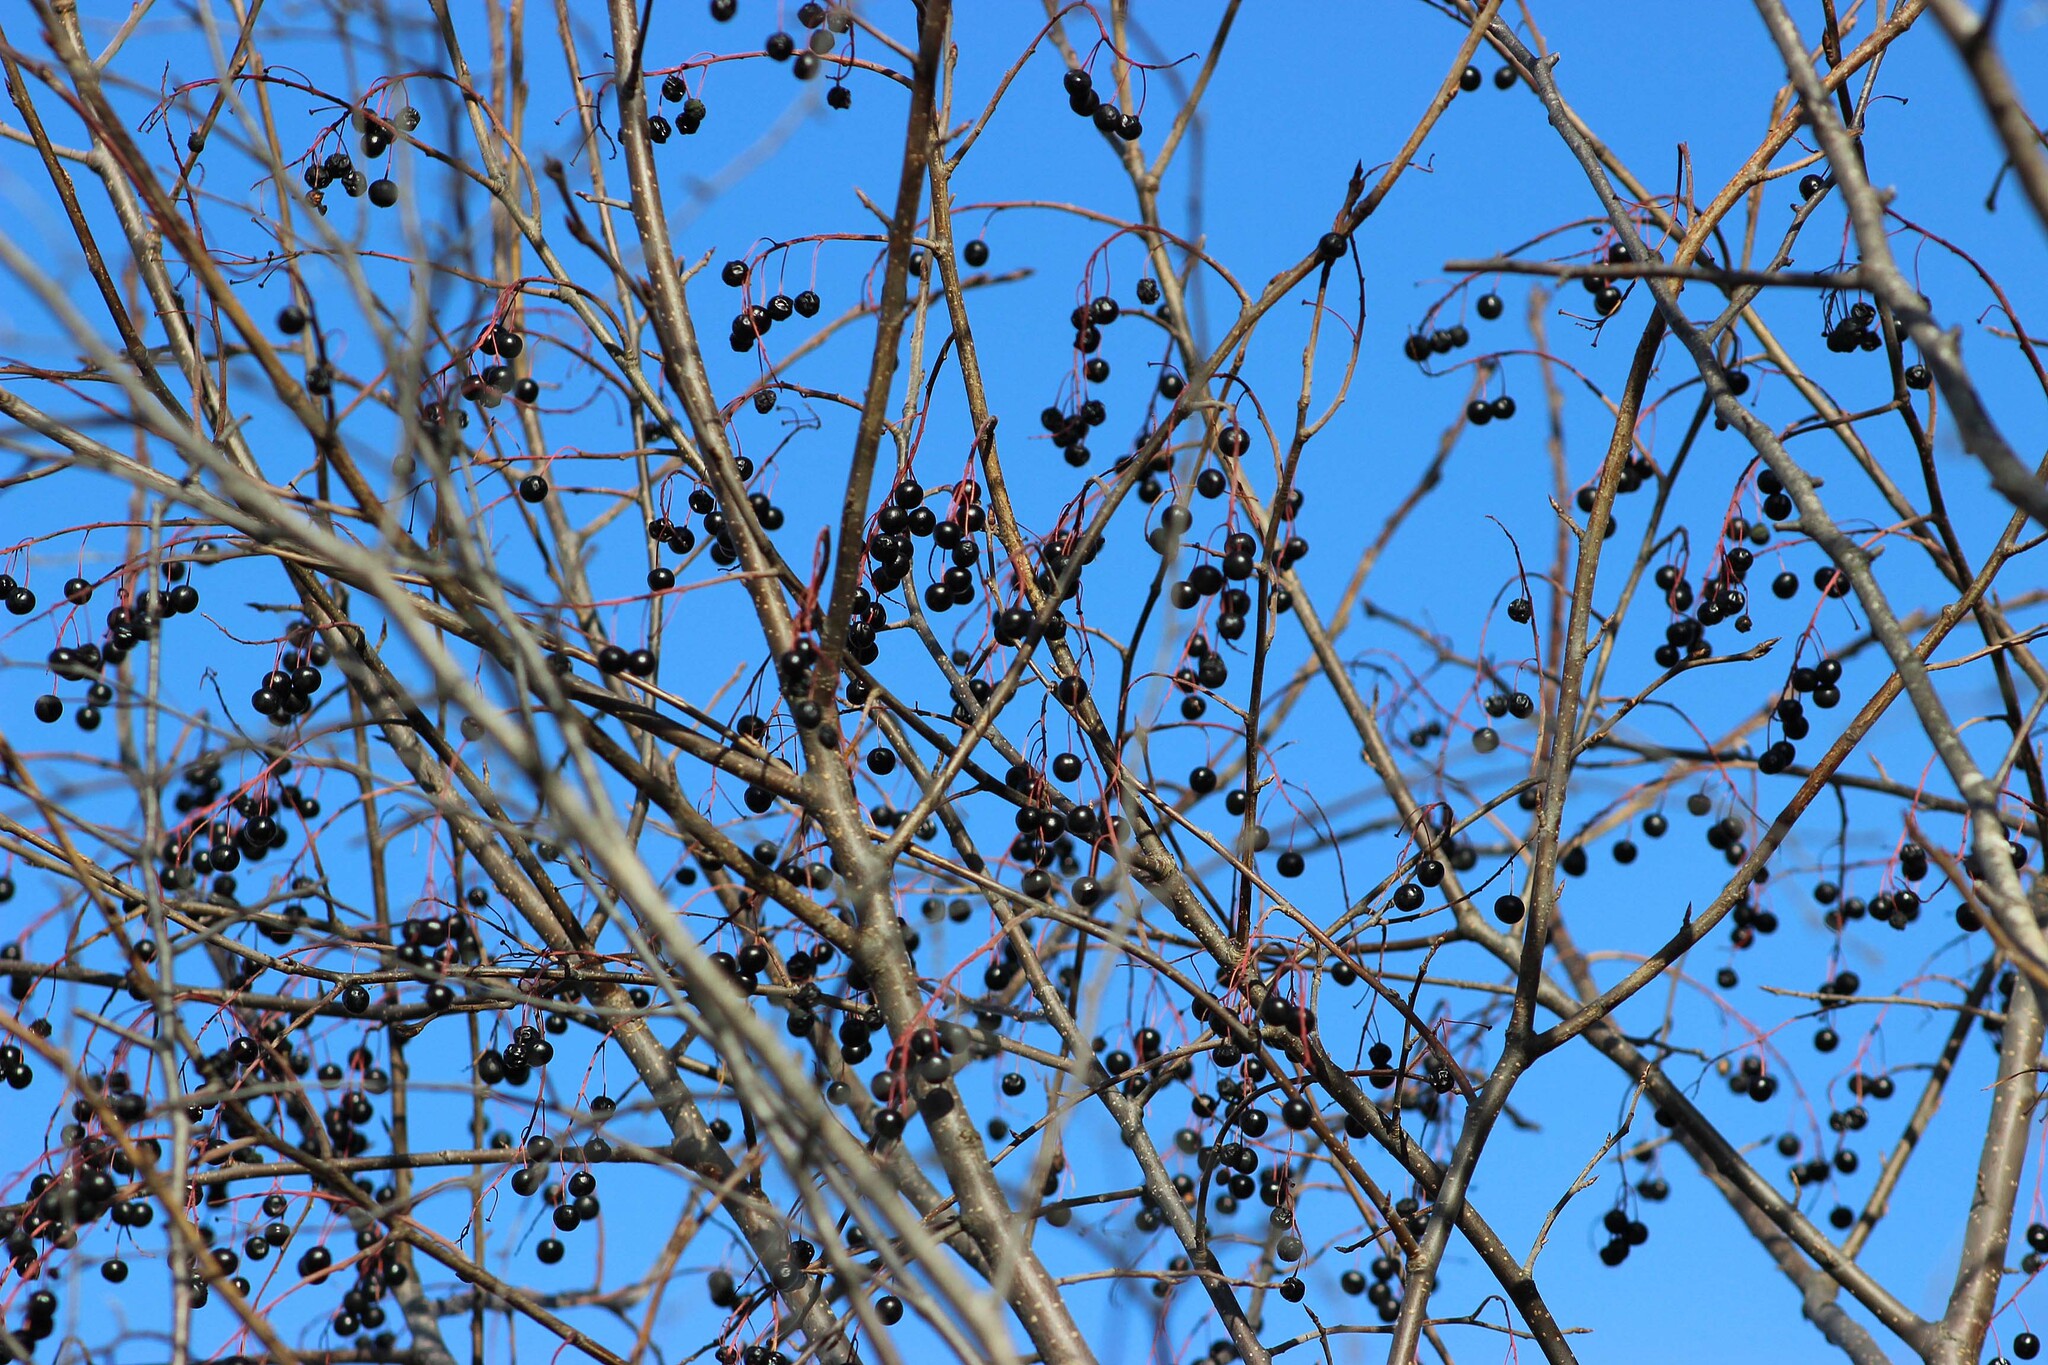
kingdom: Plantae
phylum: Tracheophyta
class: Magnoliopsida
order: Rosales
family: Rosaceae
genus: Prunus
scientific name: Prunus padus
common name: Bird cherry
